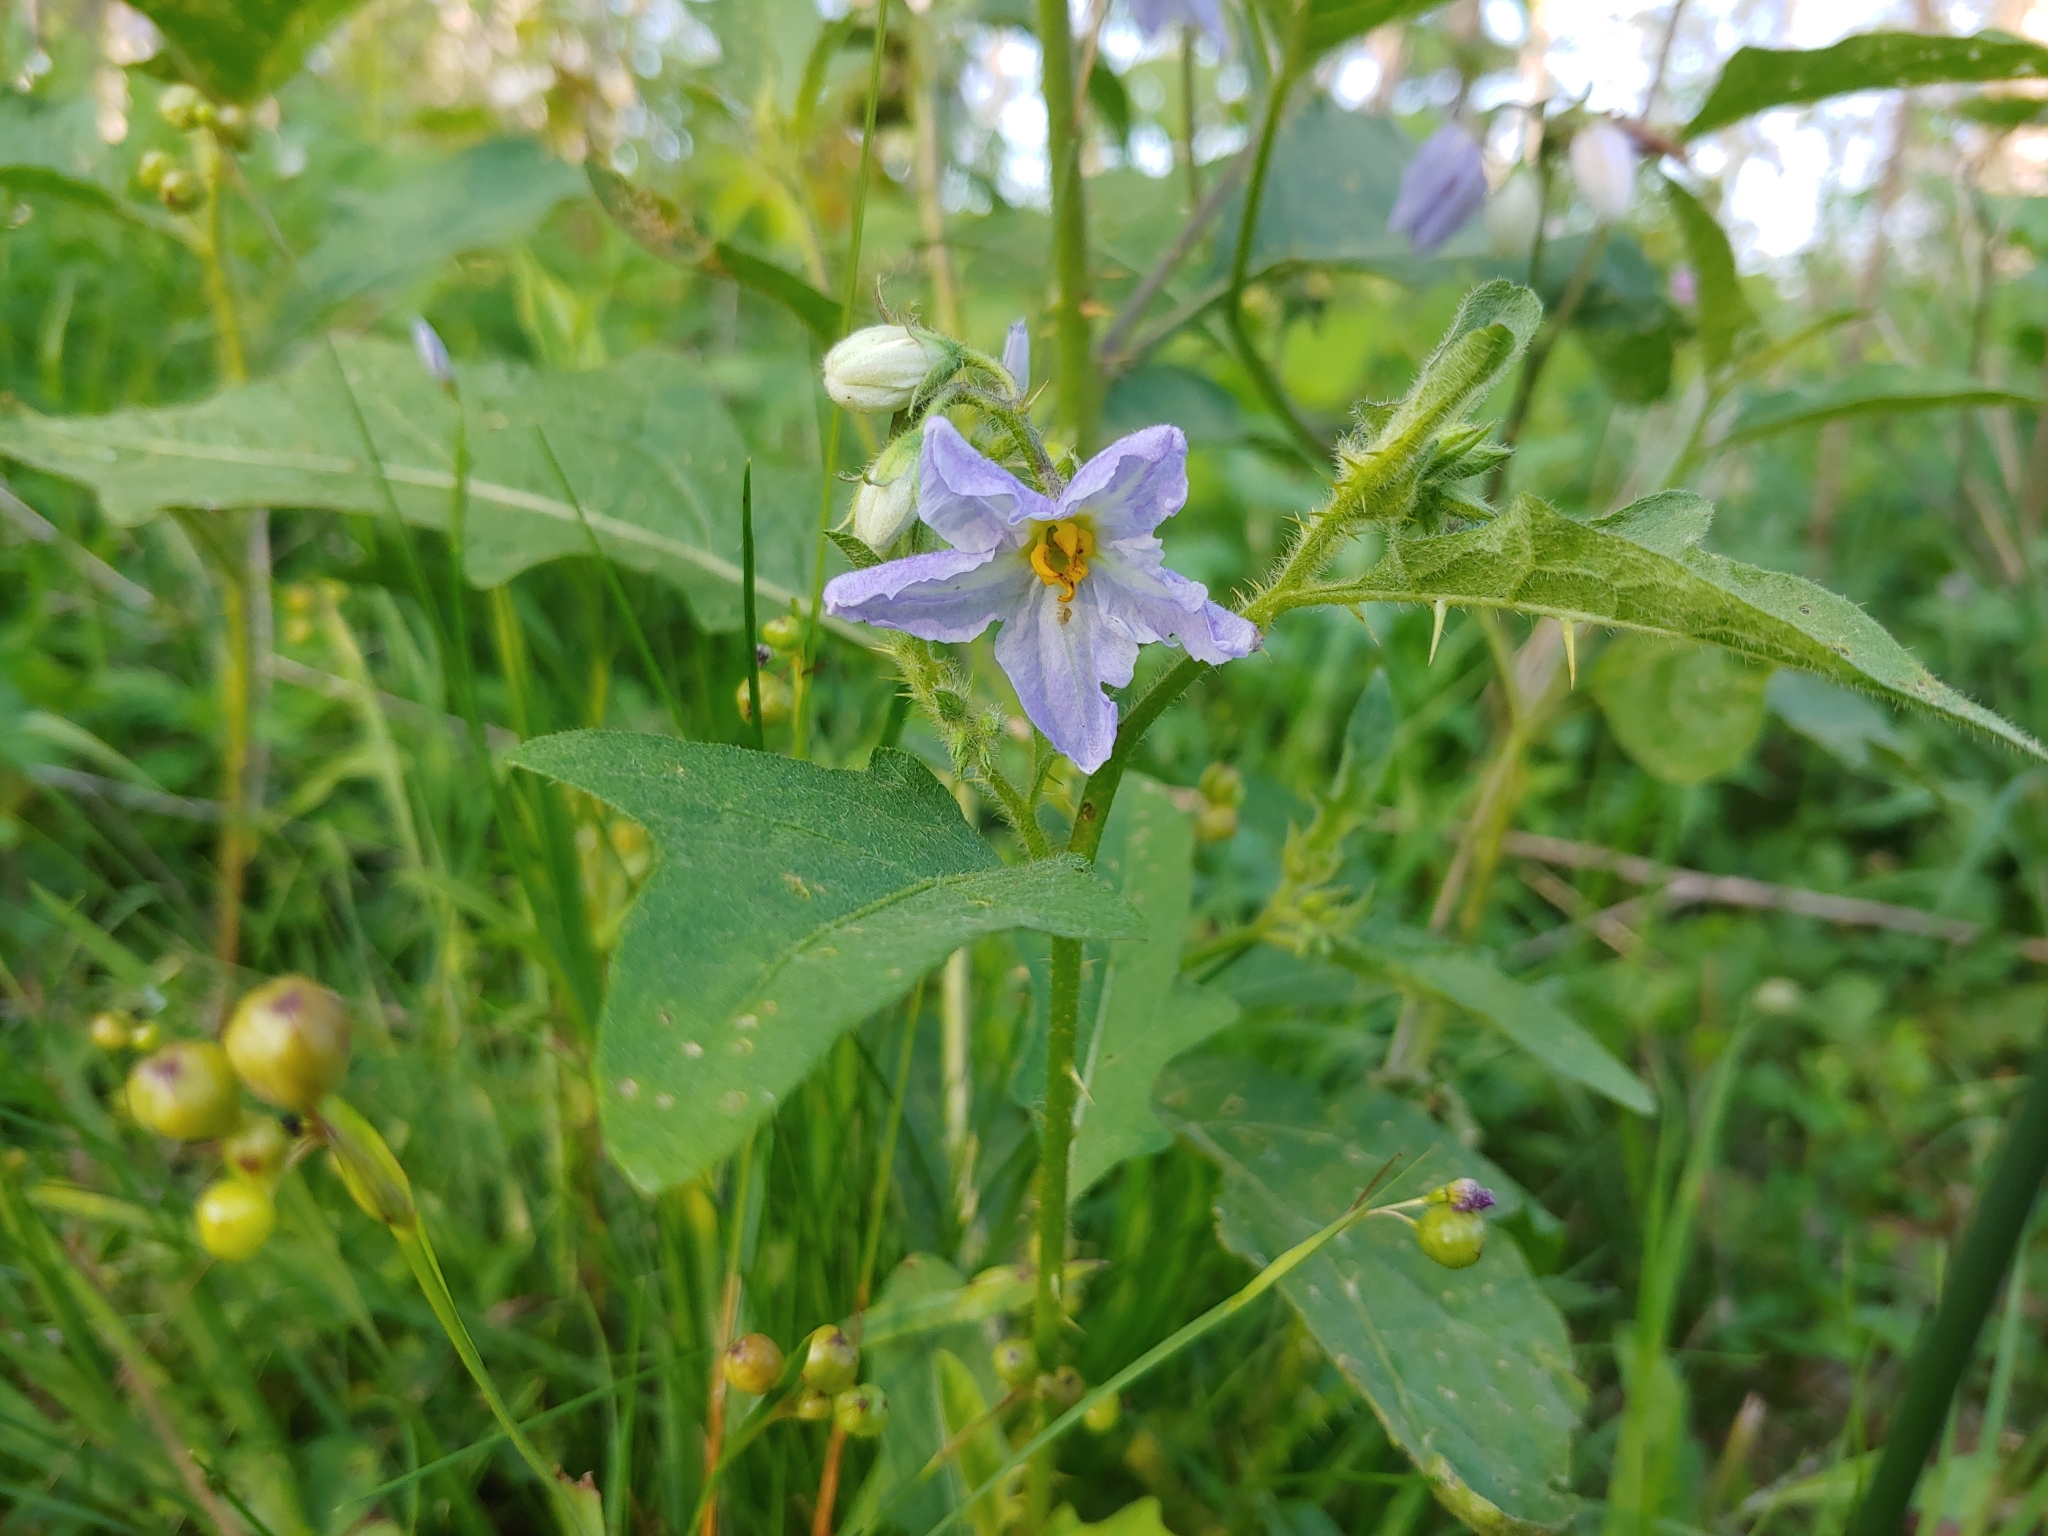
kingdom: Plantae
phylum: Tracheophyta
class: Magnoliopsida
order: Solanales
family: Solanaceae
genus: Solanum
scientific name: Solanum carolinense
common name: Horse-nettle
